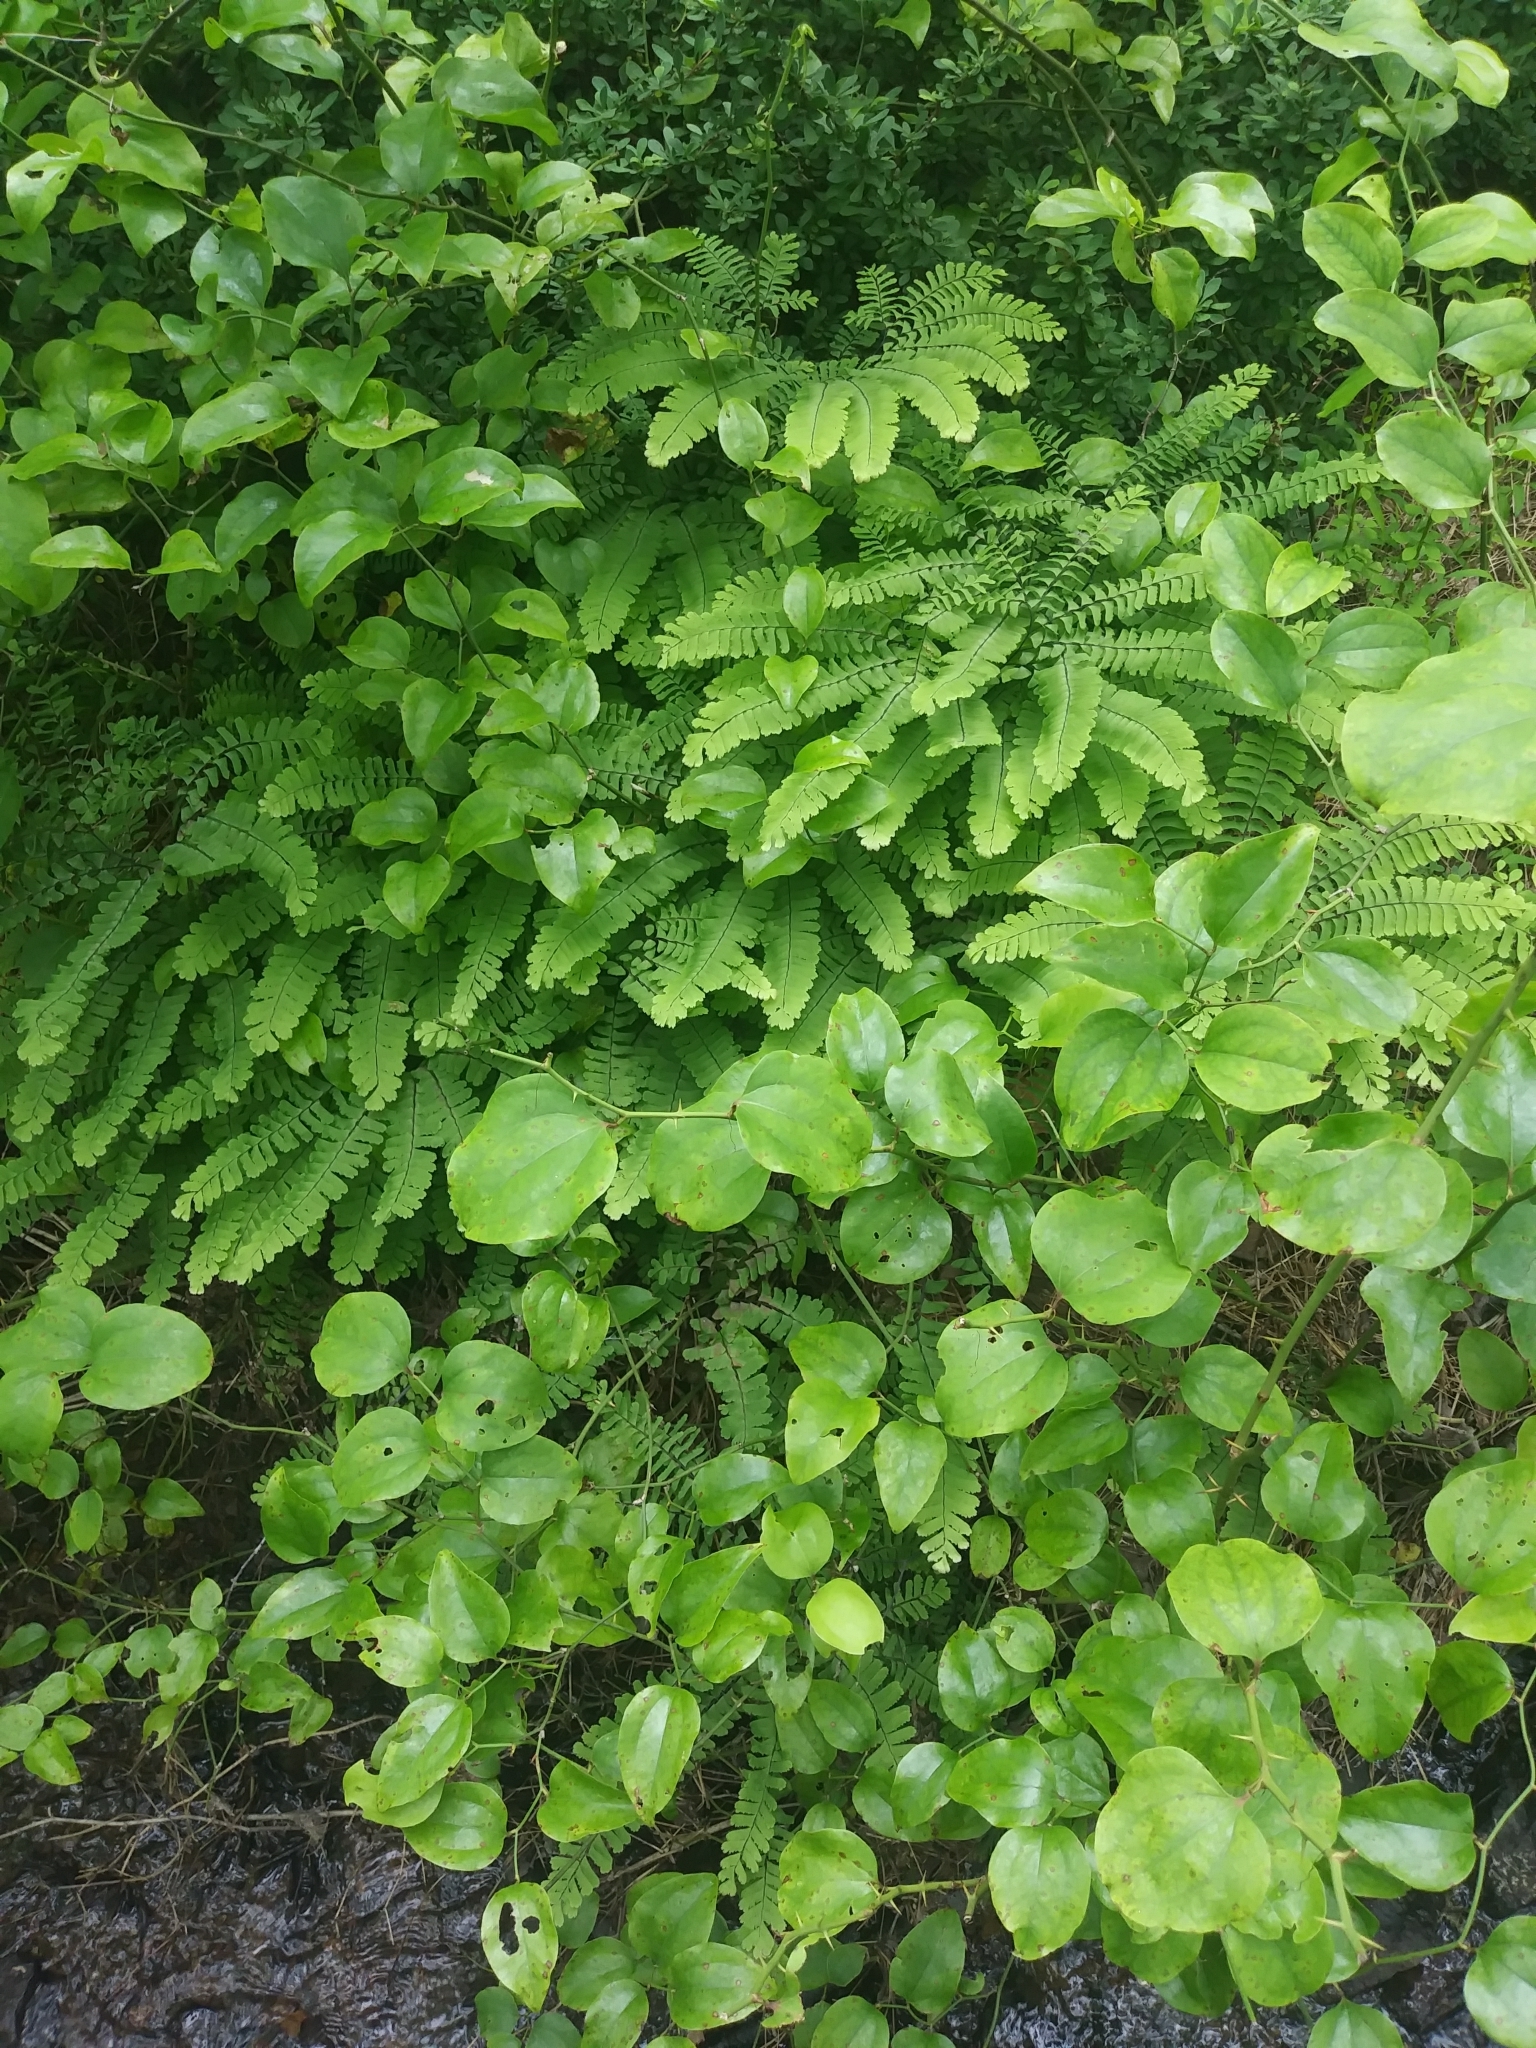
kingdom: Plantae
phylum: Tracheophyta
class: Polypodiopsida
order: Polypodiales
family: Pteridaceae
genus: Adiantum
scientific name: Adiantum pedatum
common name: Five-finger fern
